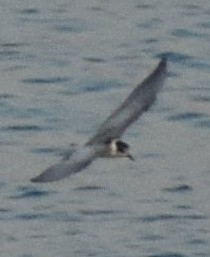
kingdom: Animalia
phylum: Chordata
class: Aves
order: Charadriiformes
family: Laridae
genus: Sterna
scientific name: Sterna repressa
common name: White-cheeked tern
